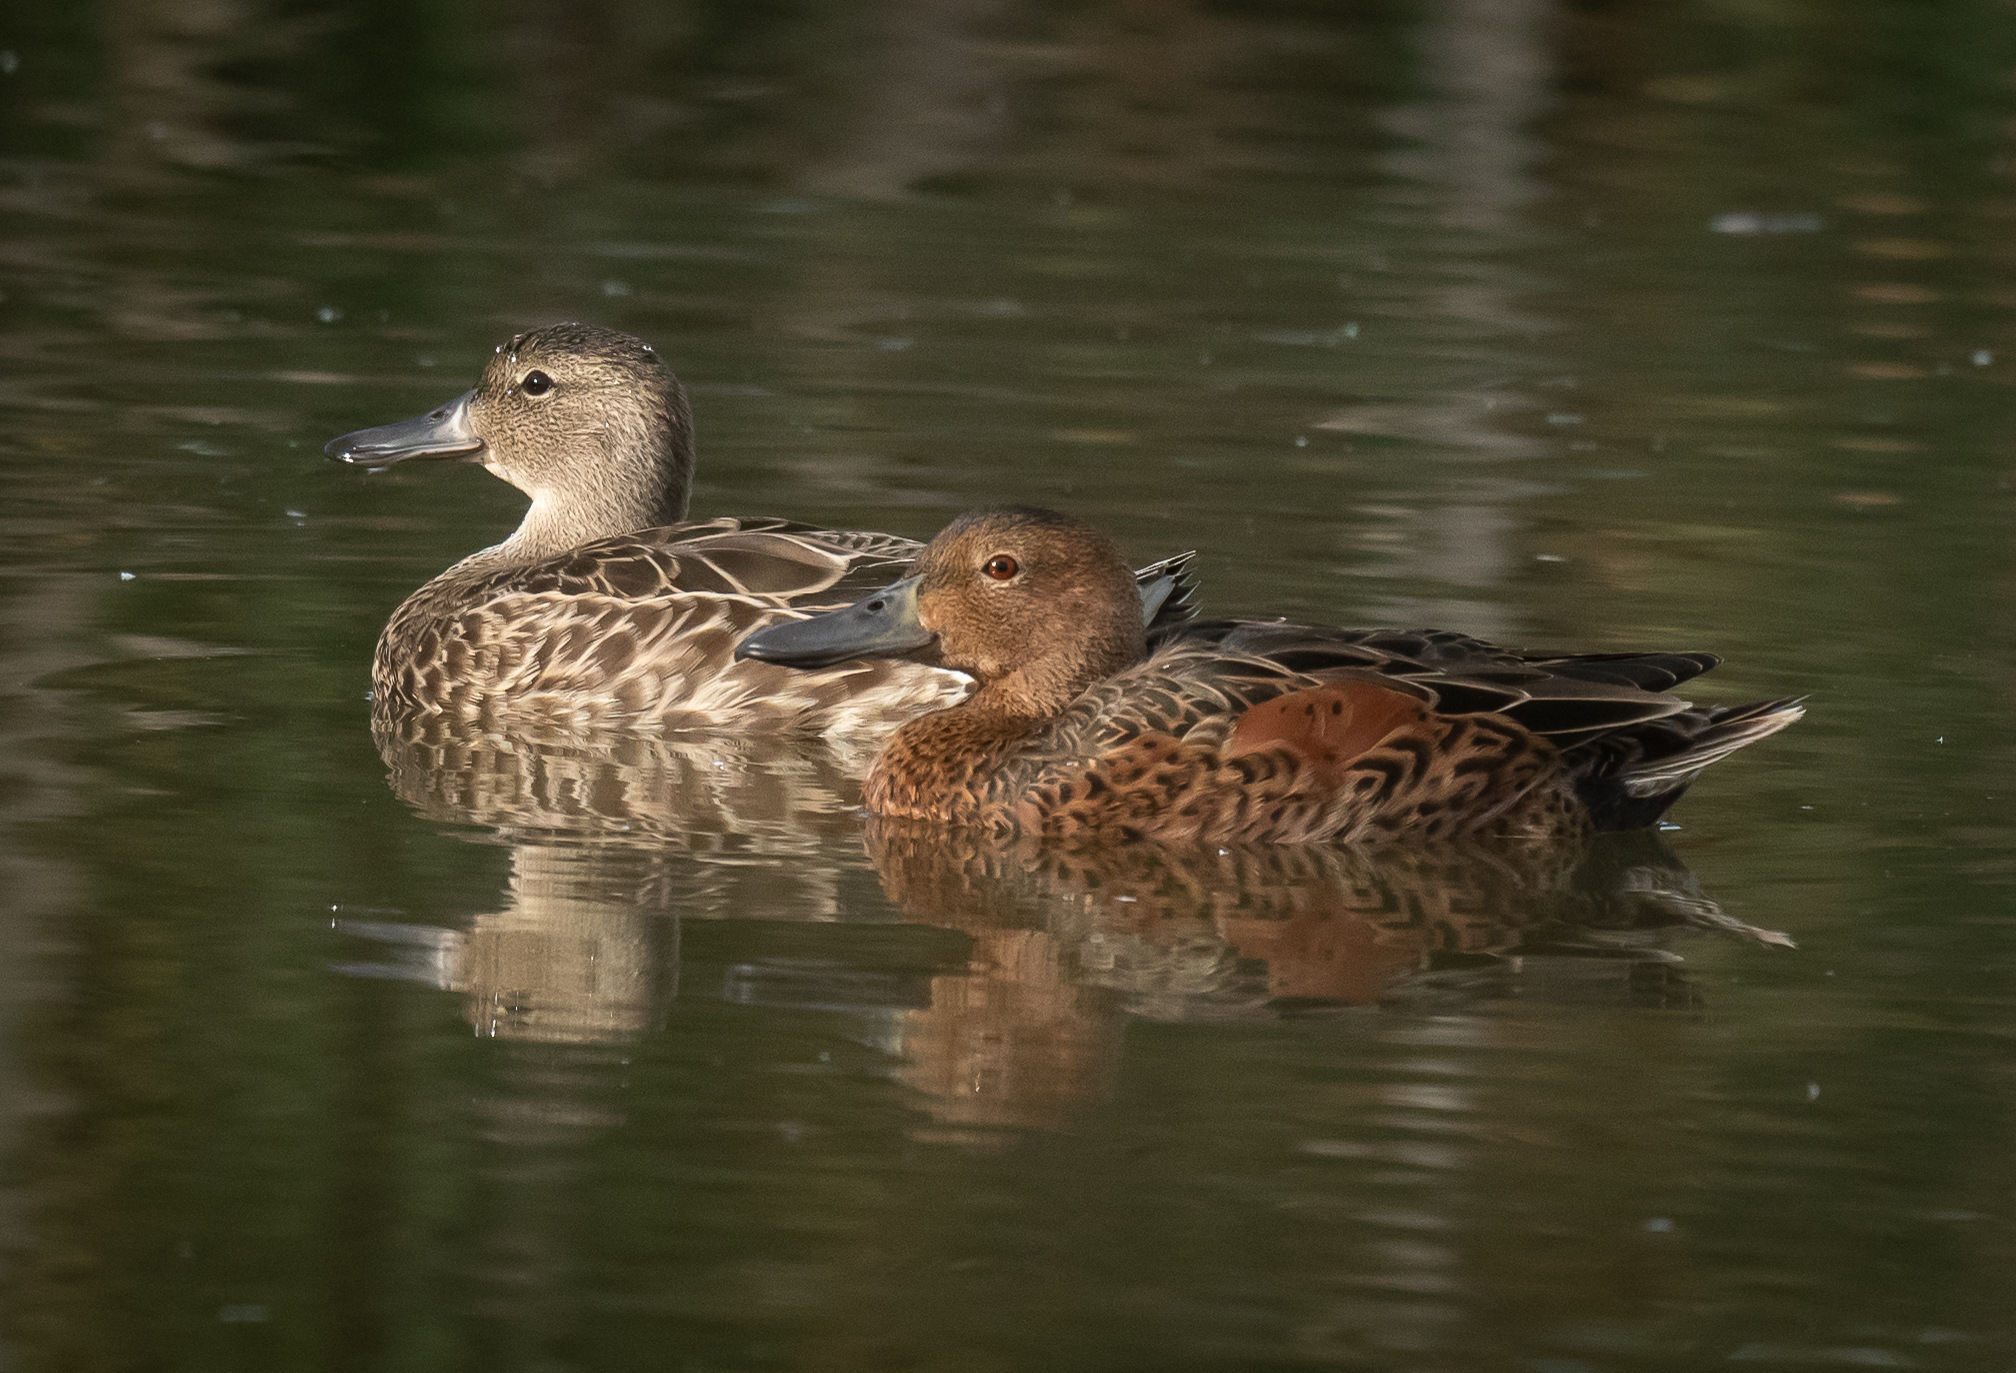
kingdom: Animalia
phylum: Chordata
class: Aves
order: Anseriformes
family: Anatidae
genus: Spatula
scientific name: Spatula cyanoptera
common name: Cinnamon teal
